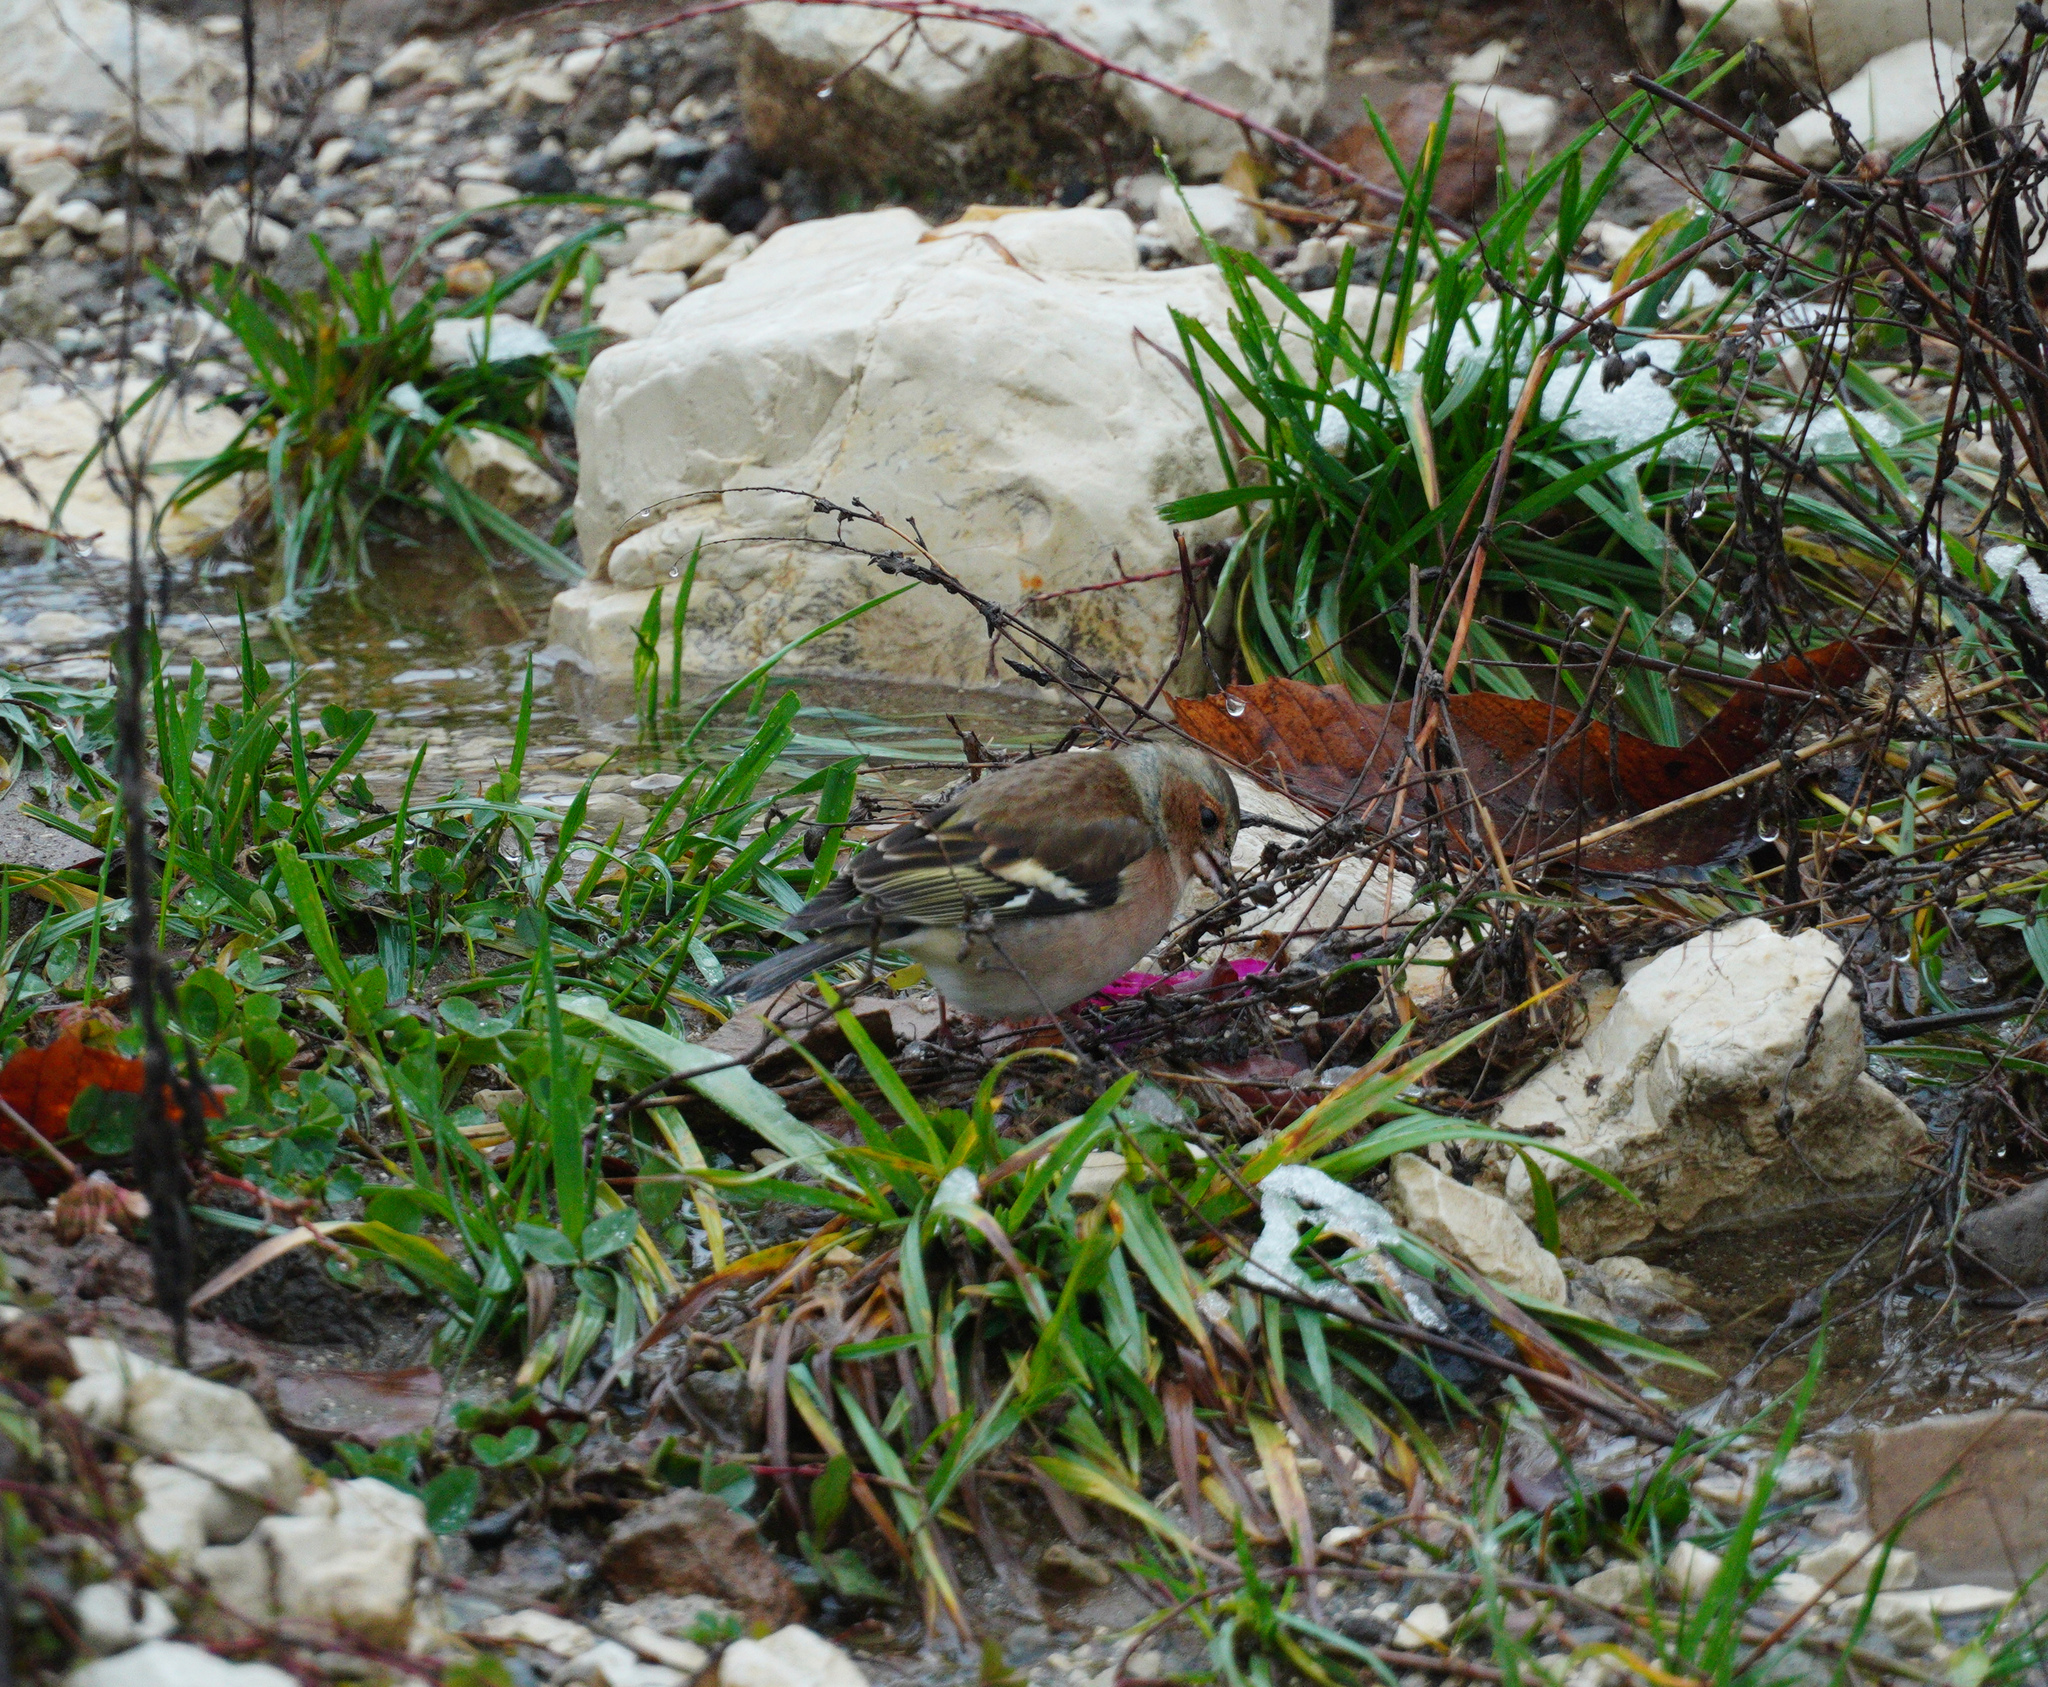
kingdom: Animalia
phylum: Chordata
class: Aves
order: Passeriformes
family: Fringillidae
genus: Fringilla
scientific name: Fringilla coelebs
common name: Common chaffinch
